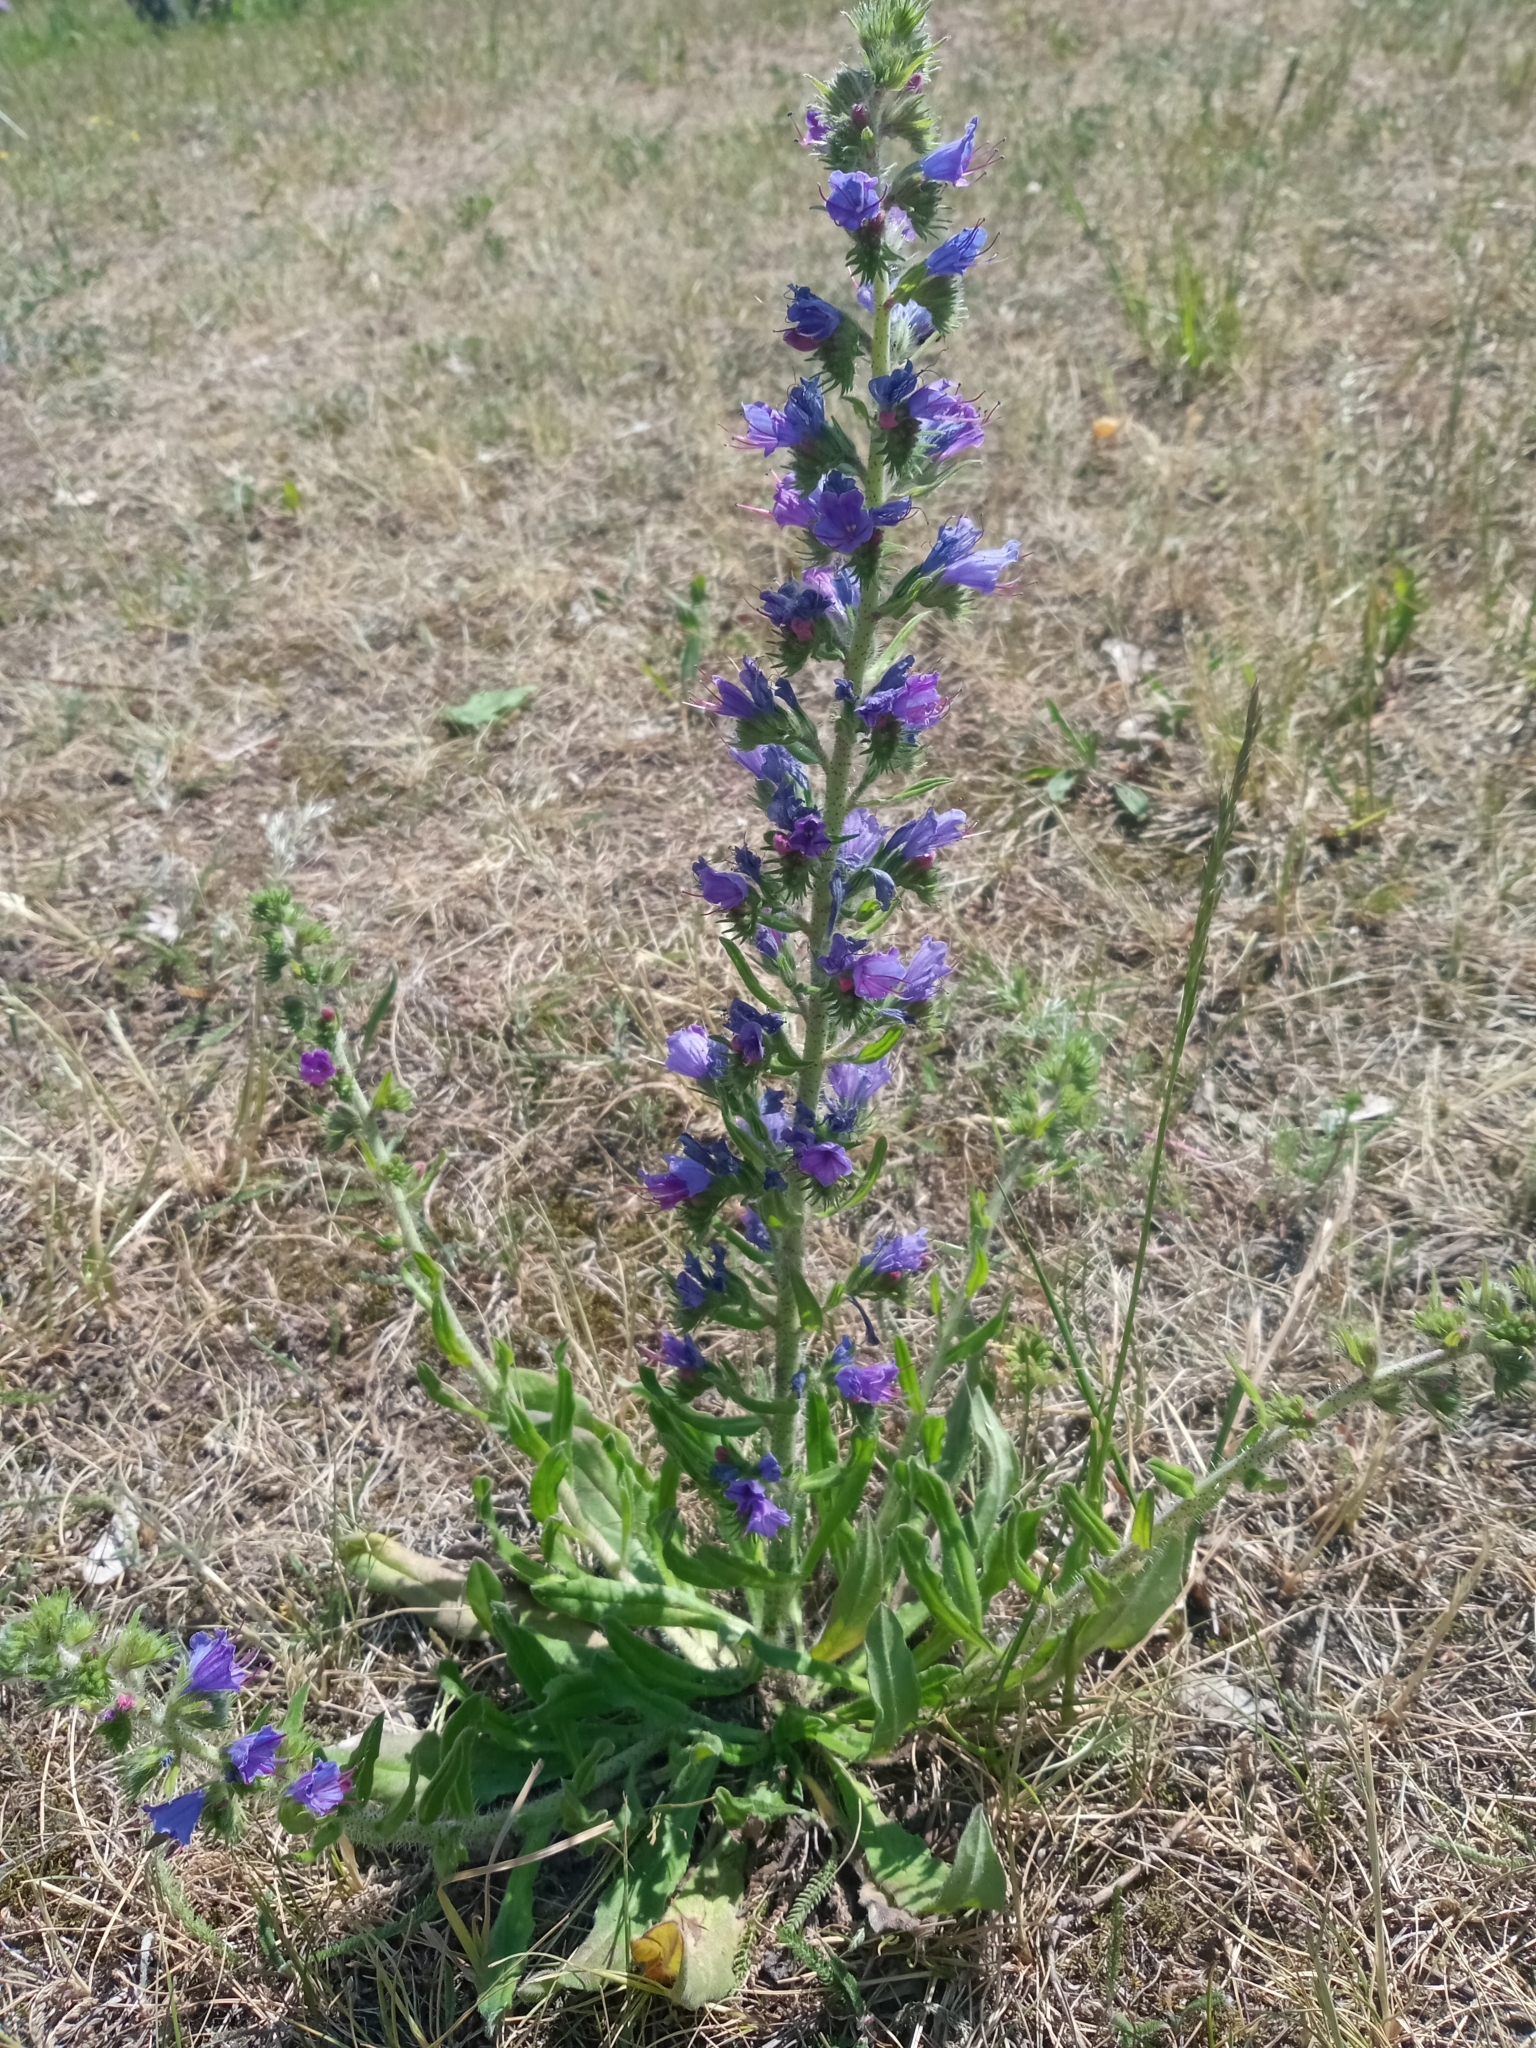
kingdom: Plantae
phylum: Tracheophyta
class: Magnoliopsida
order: Boraginales
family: Boraginaceae
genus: Echium
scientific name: Echium vulgare
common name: Common viper's bugloss
